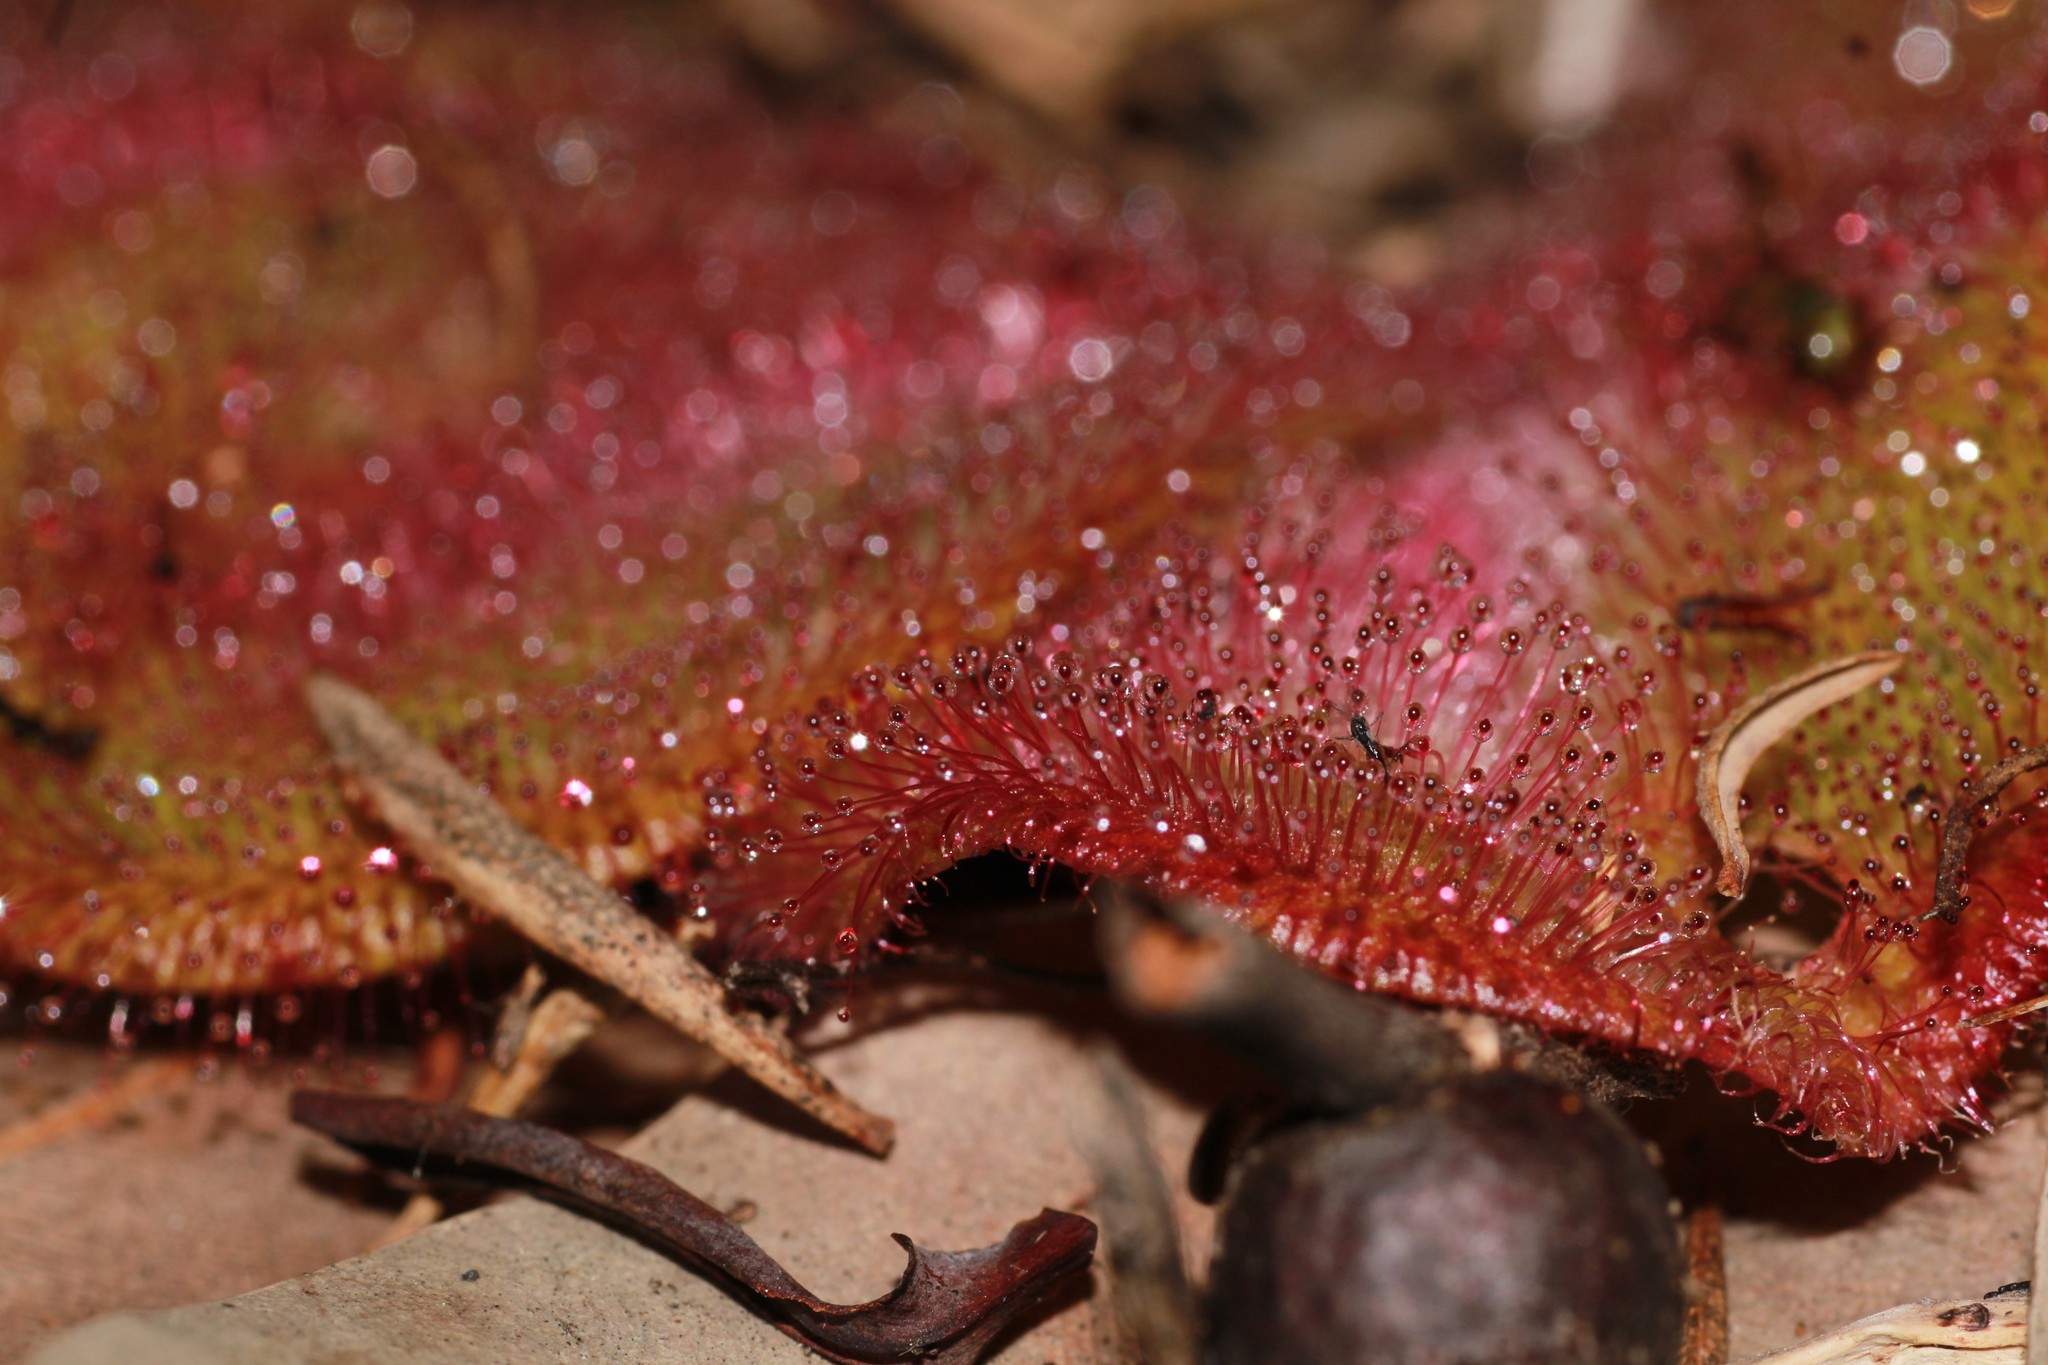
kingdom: Plantae
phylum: Tracheophyta
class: Magnoliopsida
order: Caryophyllales
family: Droseraceae
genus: Drosera
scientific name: Drosera erythrorhiza
